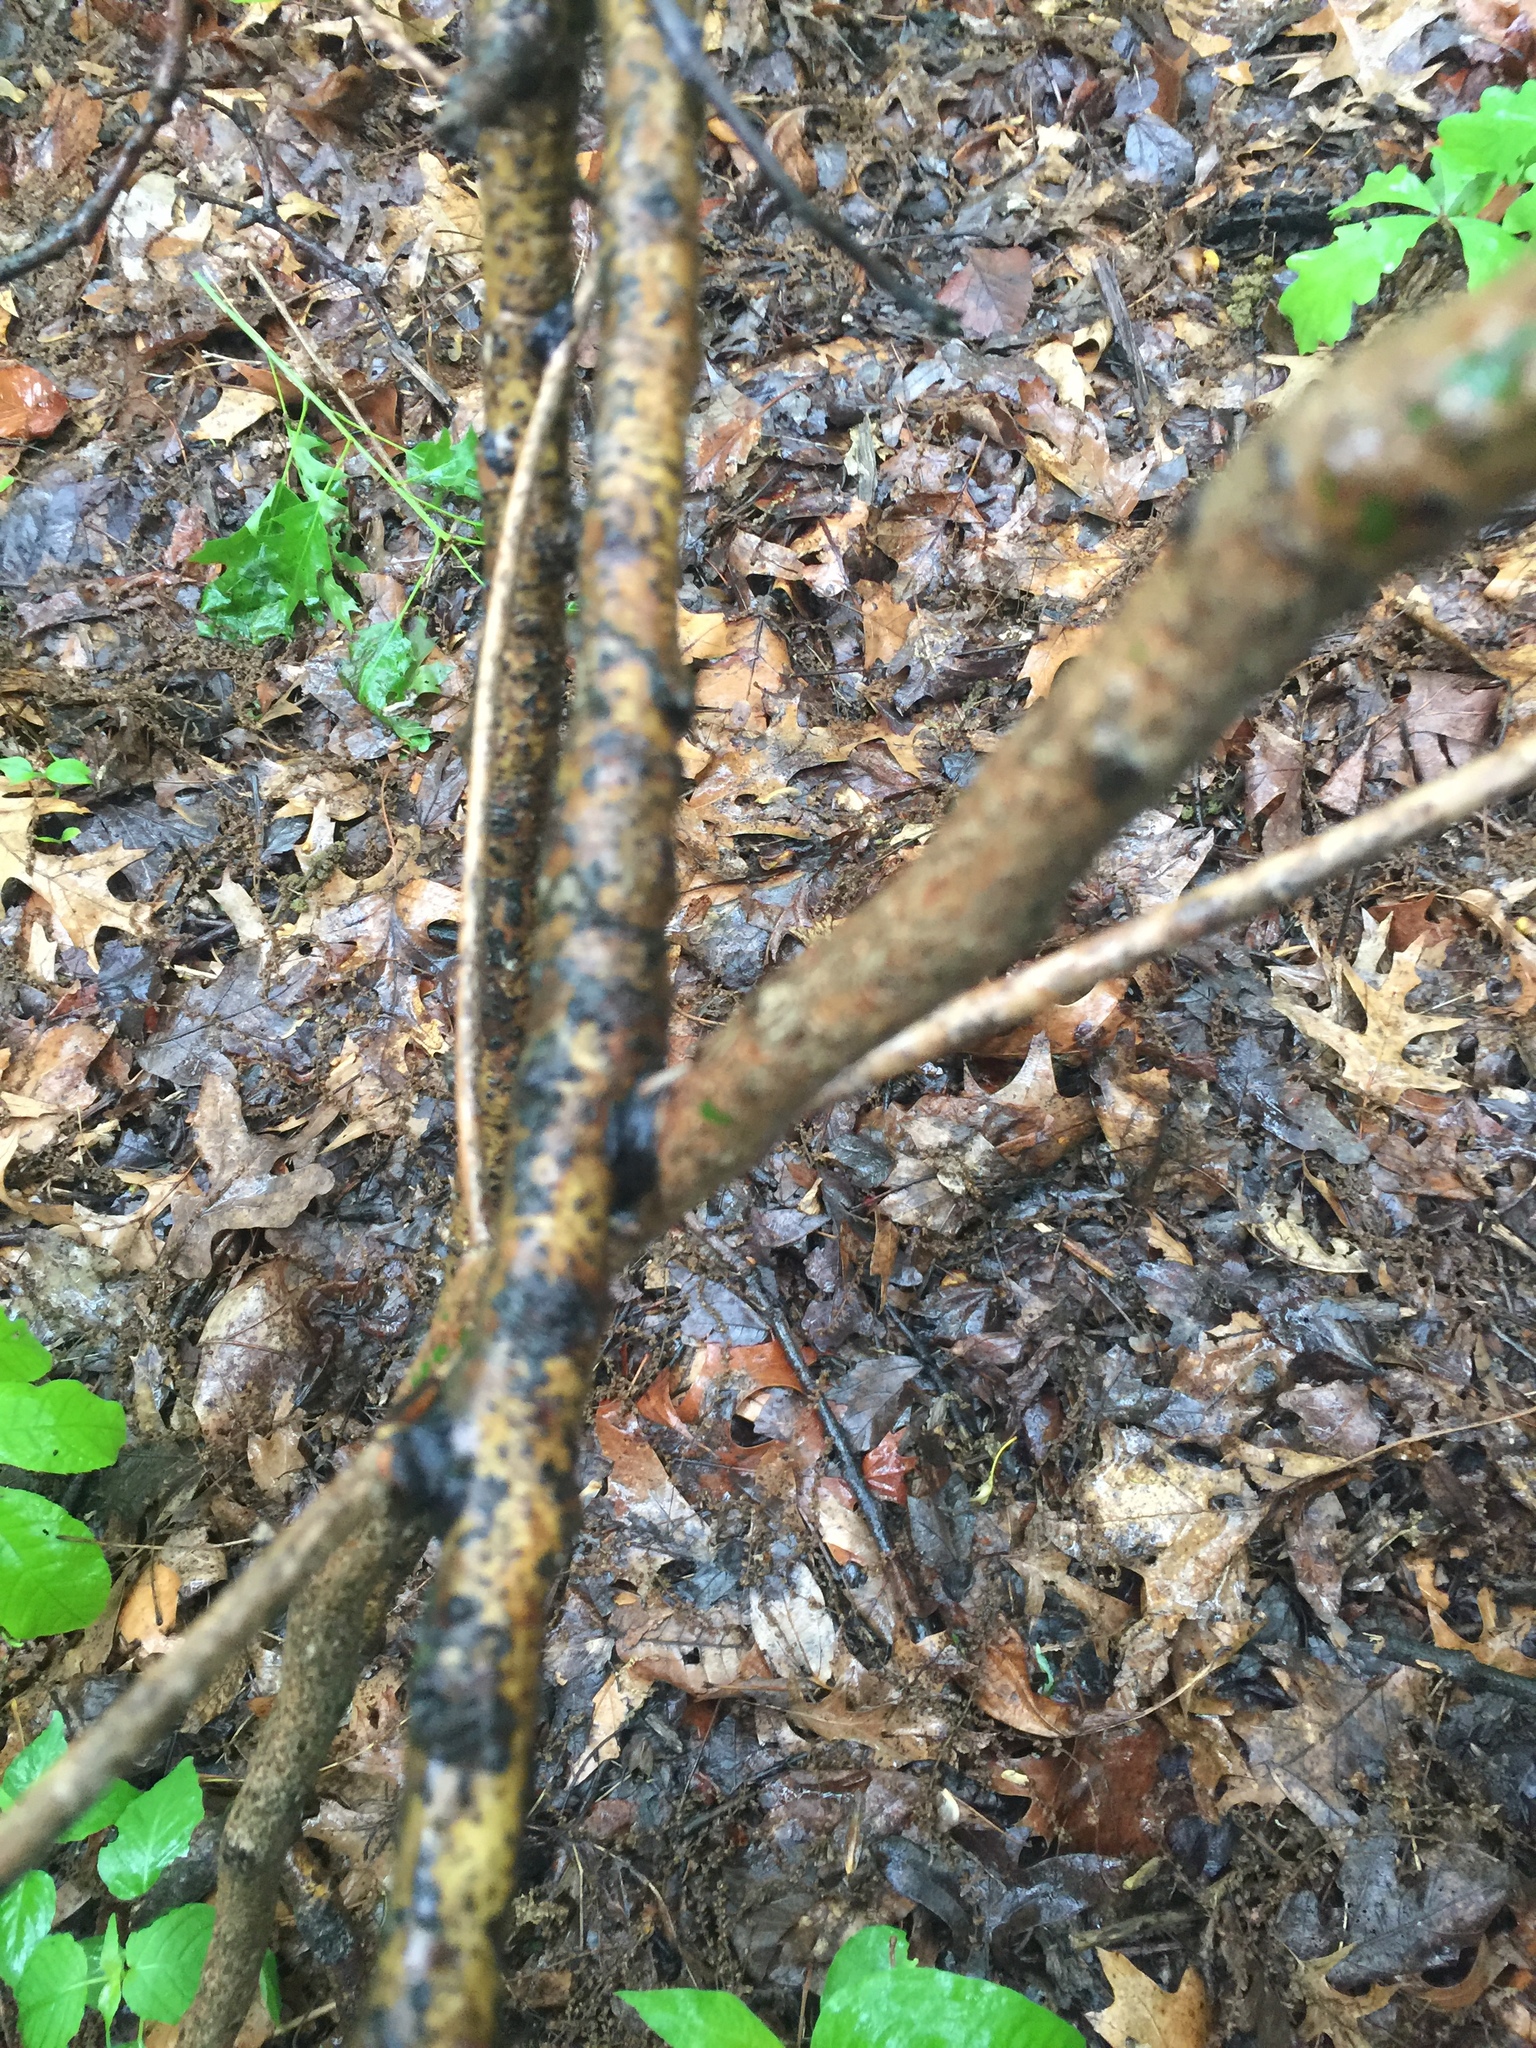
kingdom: Fungi
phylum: Basidiomycota
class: Agaricomycetes
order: Hymenochaetales
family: Hymenochaetaceae
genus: Hydnoporia
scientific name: Hydnoporia diffissa
